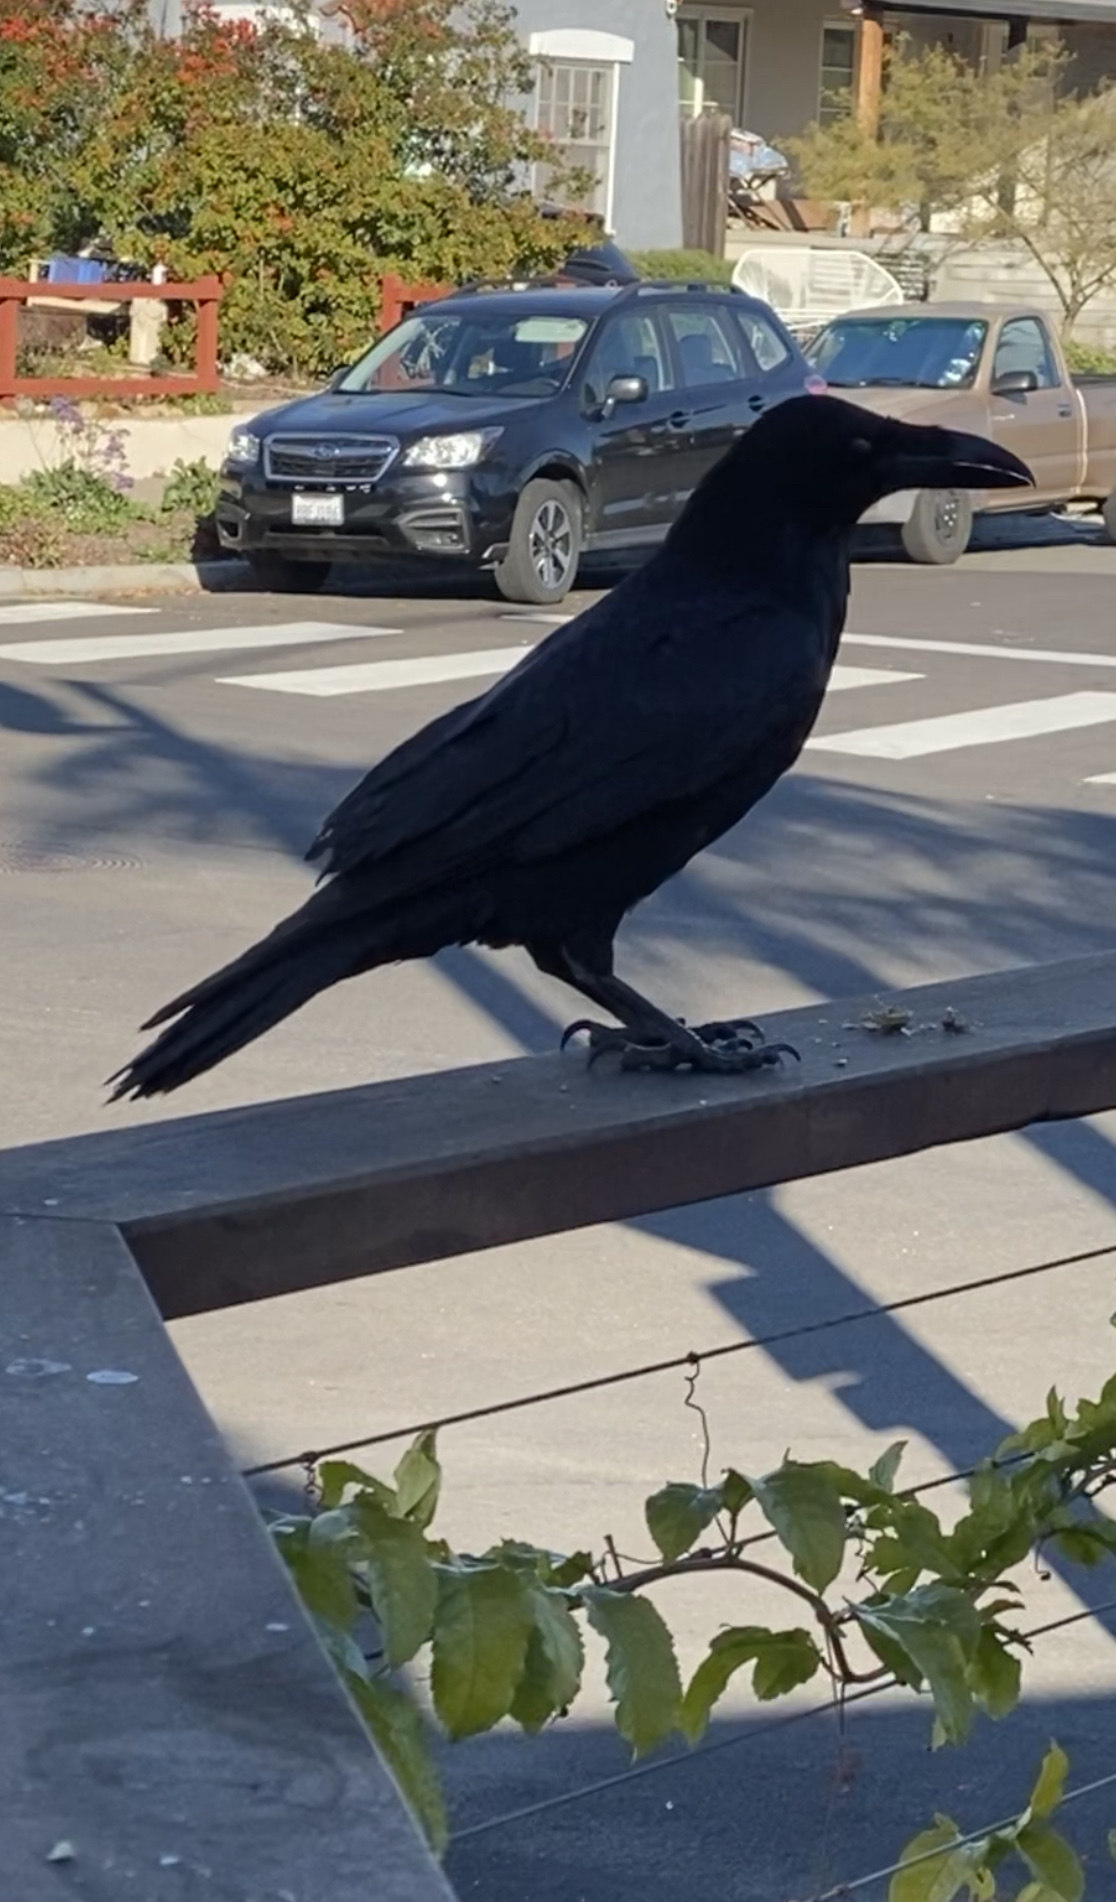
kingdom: Animalia
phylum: Chordata
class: Aves
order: Passeriformes
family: Corvidae
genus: Corvus
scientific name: Corvus corax
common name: Common raven
